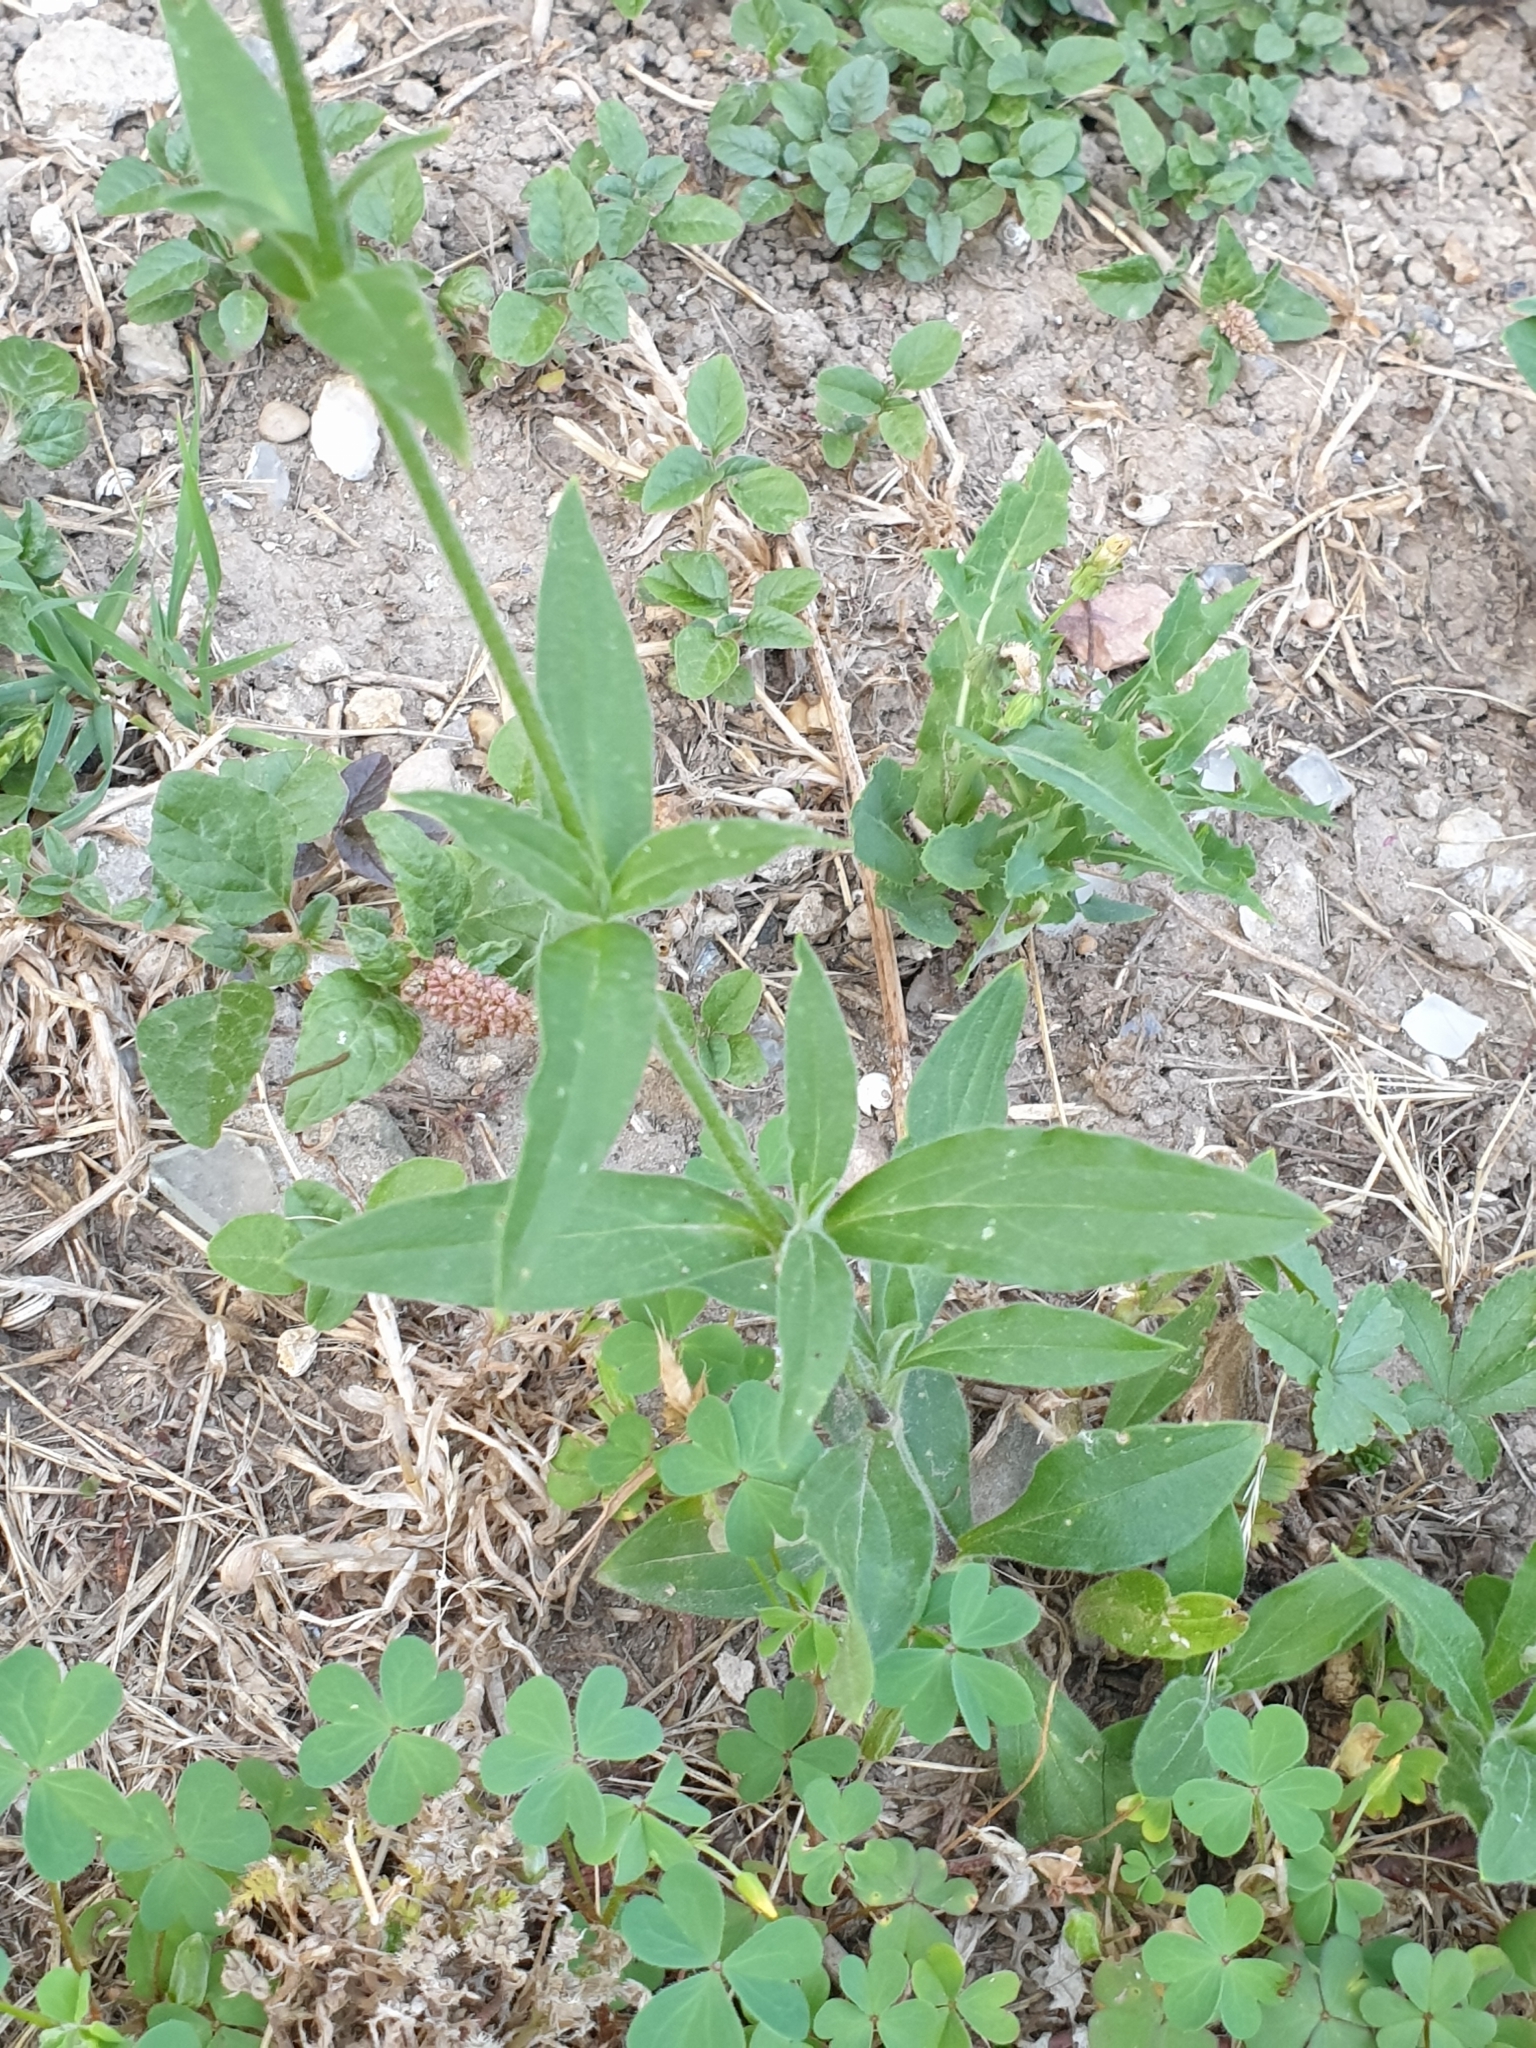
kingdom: Plantae
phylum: Tracheophyta
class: Magnoliopsida
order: Caryophyllales
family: Caryophyllaceae
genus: Silene
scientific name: Silene latifolia
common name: White campion
